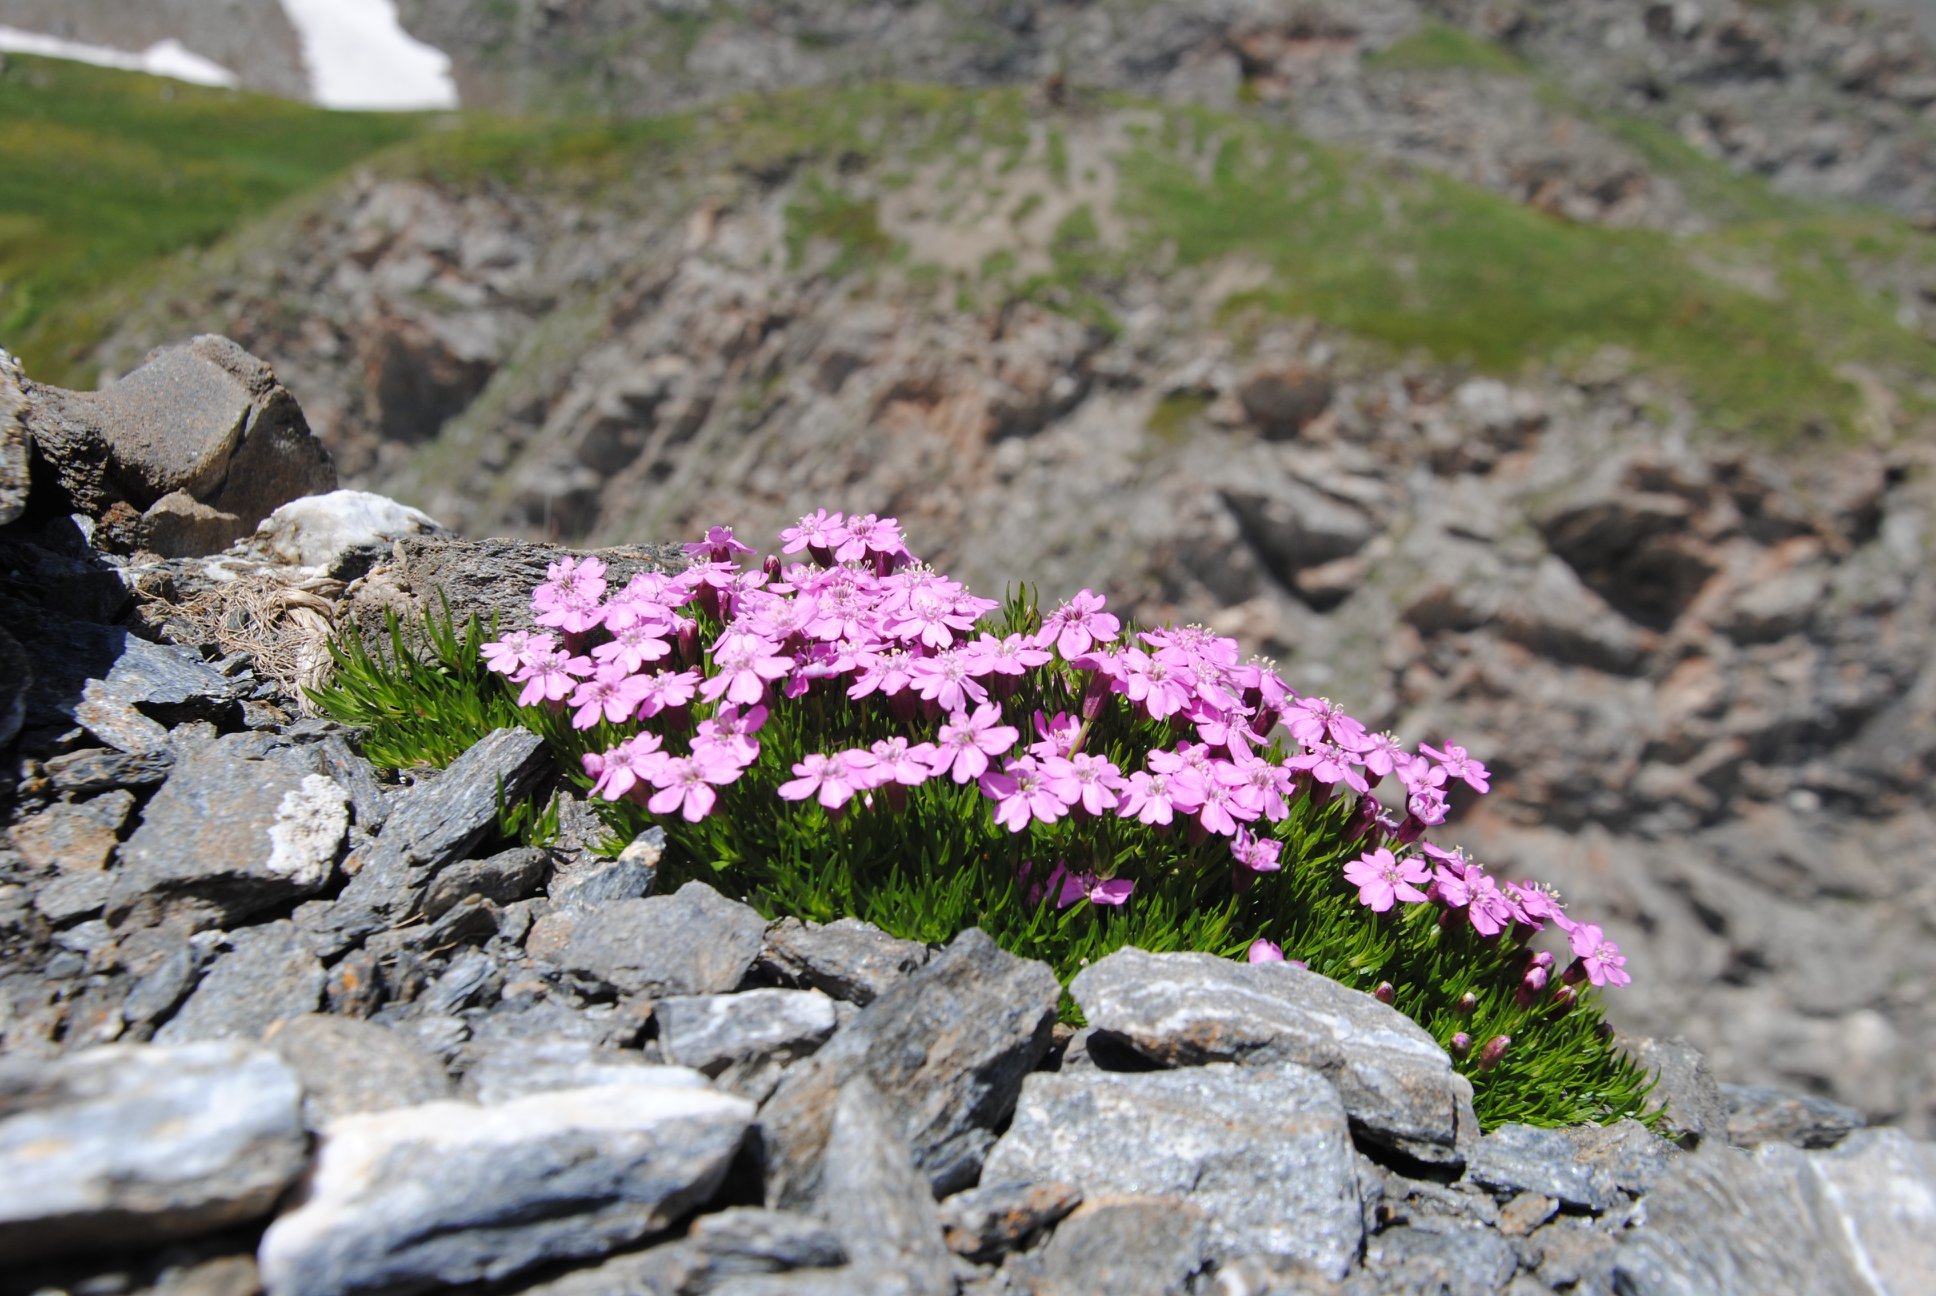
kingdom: Plantae
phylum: Tracheophyta
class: Magnoliopsida
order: Caryophyllales
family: Caryophyllaceae
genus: Silene
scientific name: Silene acaulis
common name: Moss campion
